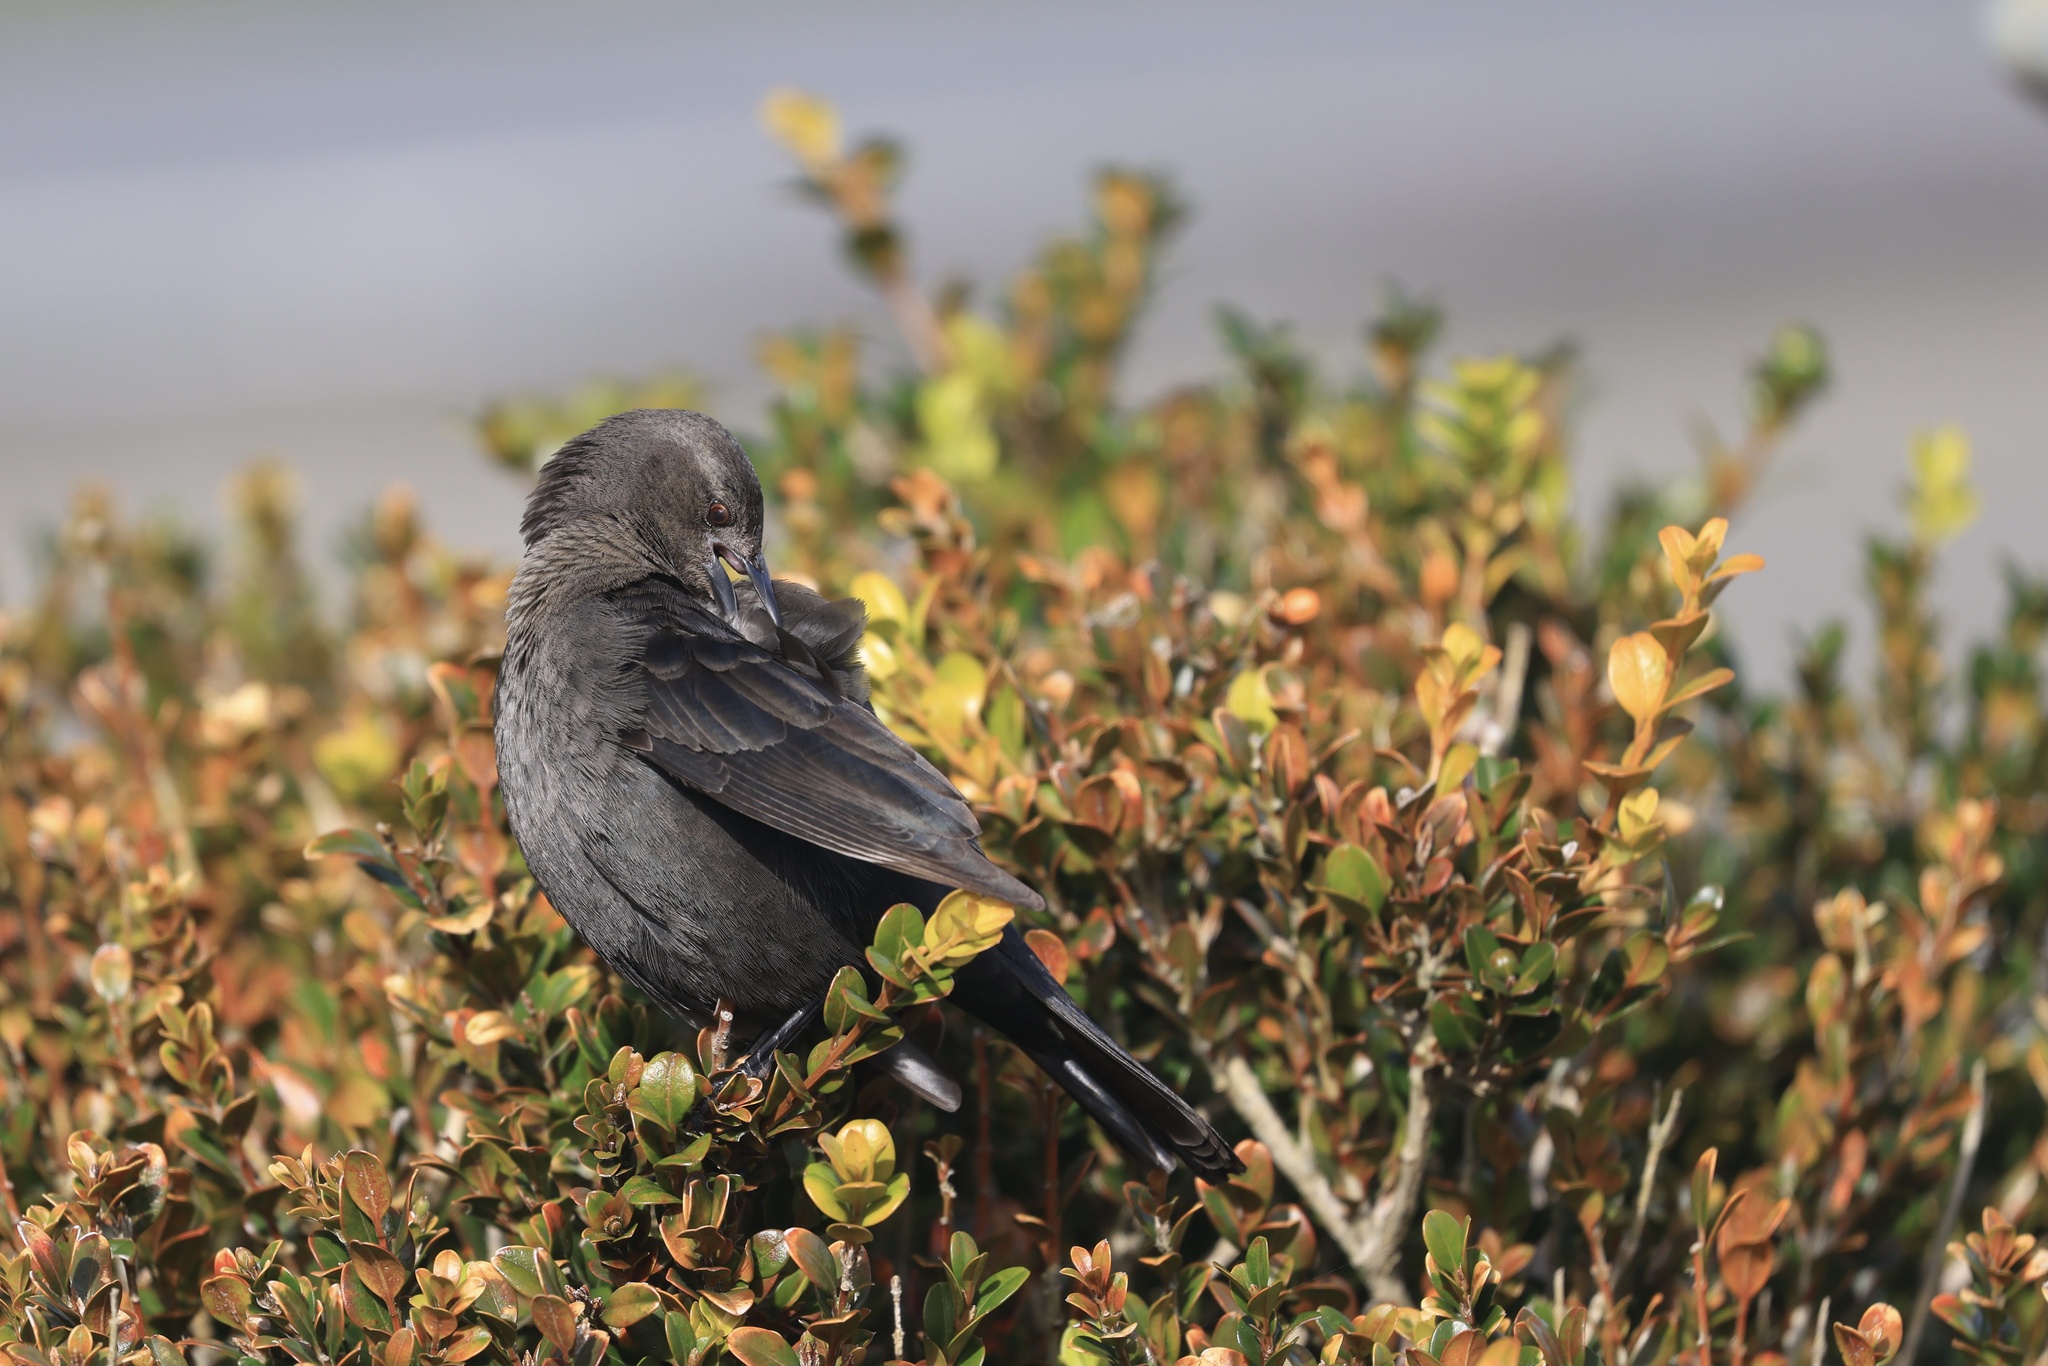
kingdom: Animalia
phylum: Chordata
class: Aves
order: Passeriformes
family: Icteridae
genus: Euphagus
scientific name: Euphagus cyanocephalus
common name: Brewer's blackbird
